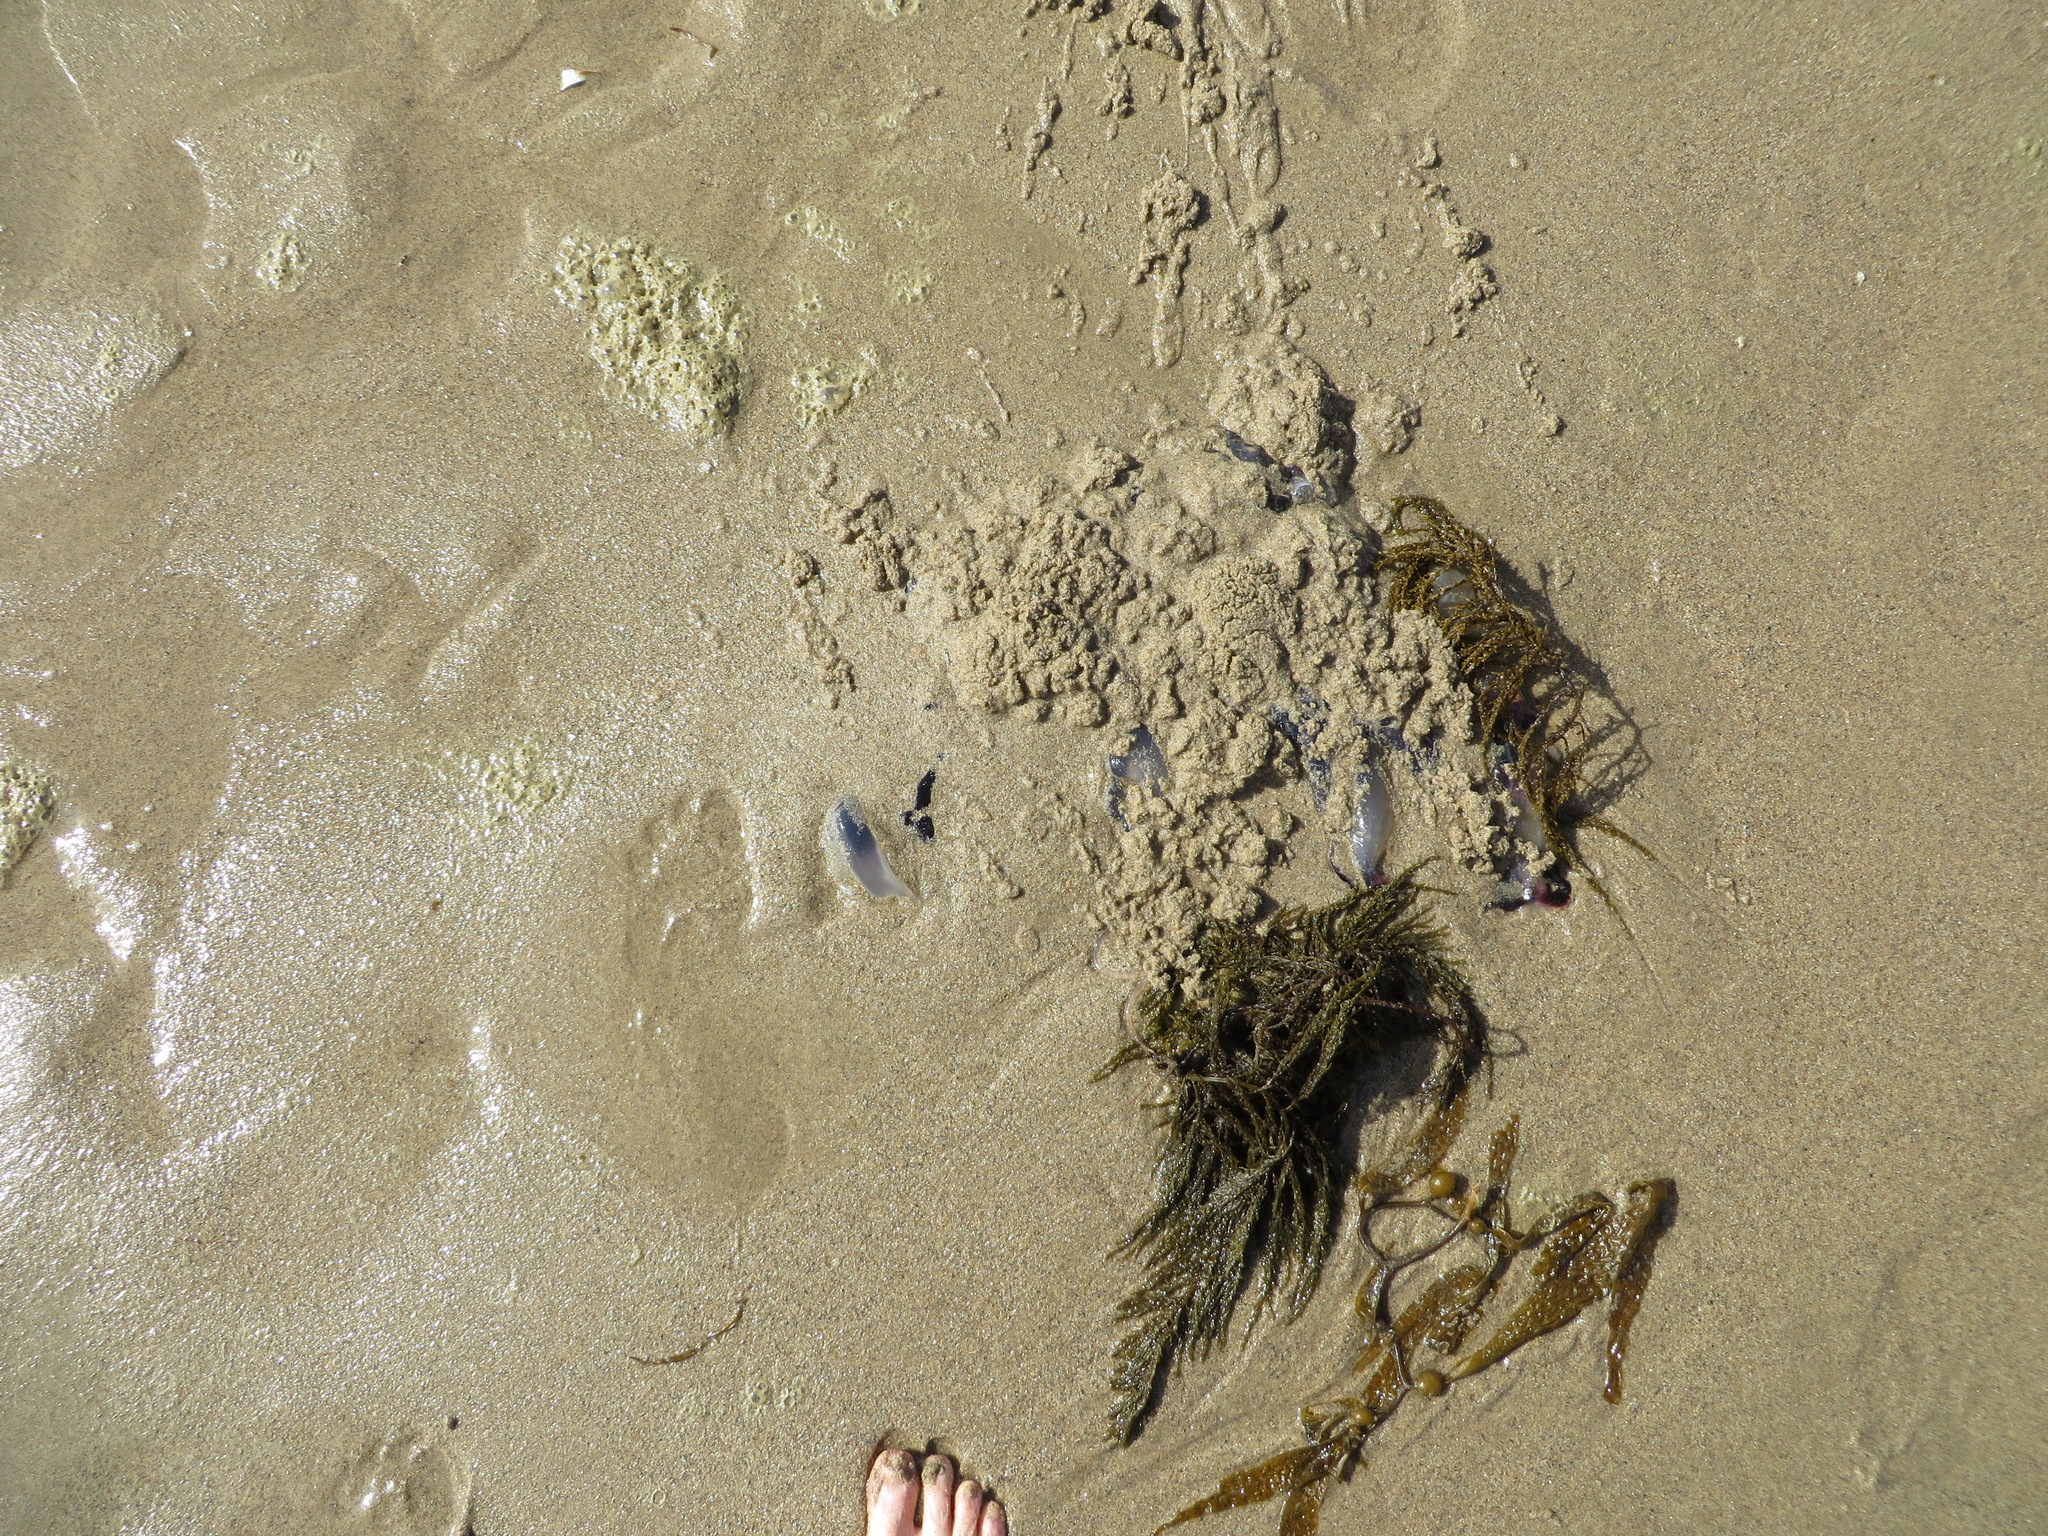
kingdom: Animalia
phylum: Cnidaria
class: Scyphozoa
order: Semaeostomeae
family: Pelagiidae
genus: Chrysaora
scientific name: Chrysaora colorata
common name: Purple-striped jellyfish
